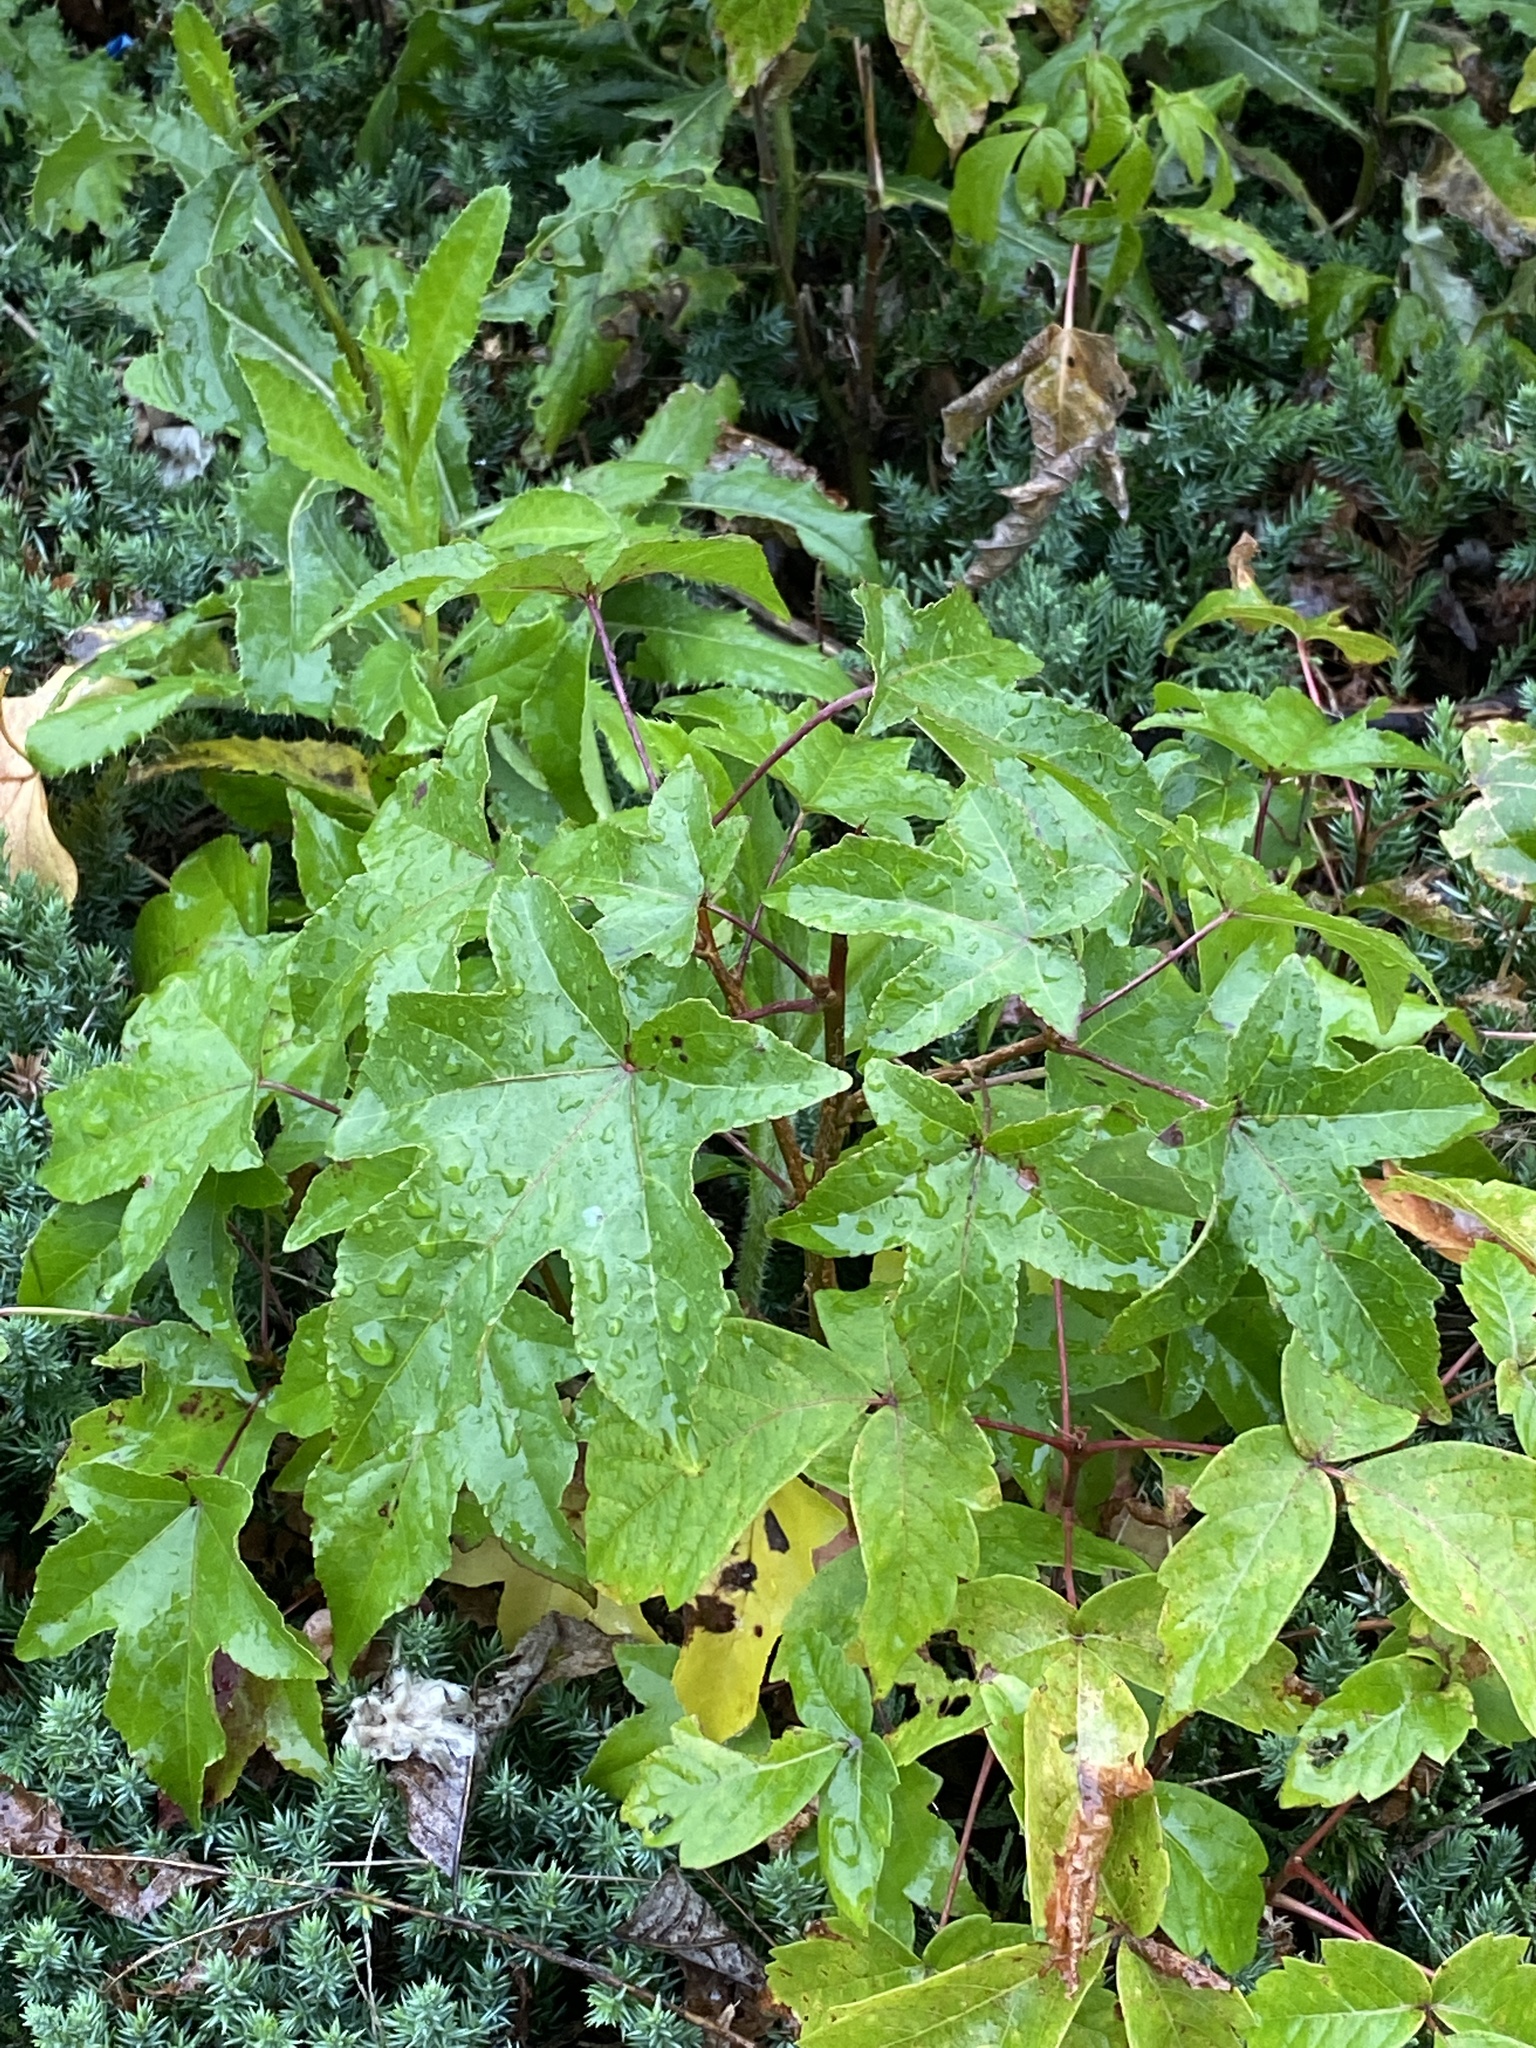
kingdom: Plantae
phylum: Tracheophyta
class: Magnoliopsida
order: Saxifragales
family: Altingiaceae
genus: Liquidambar
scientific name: Liquidambar styraciflua
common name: Sweet gum
